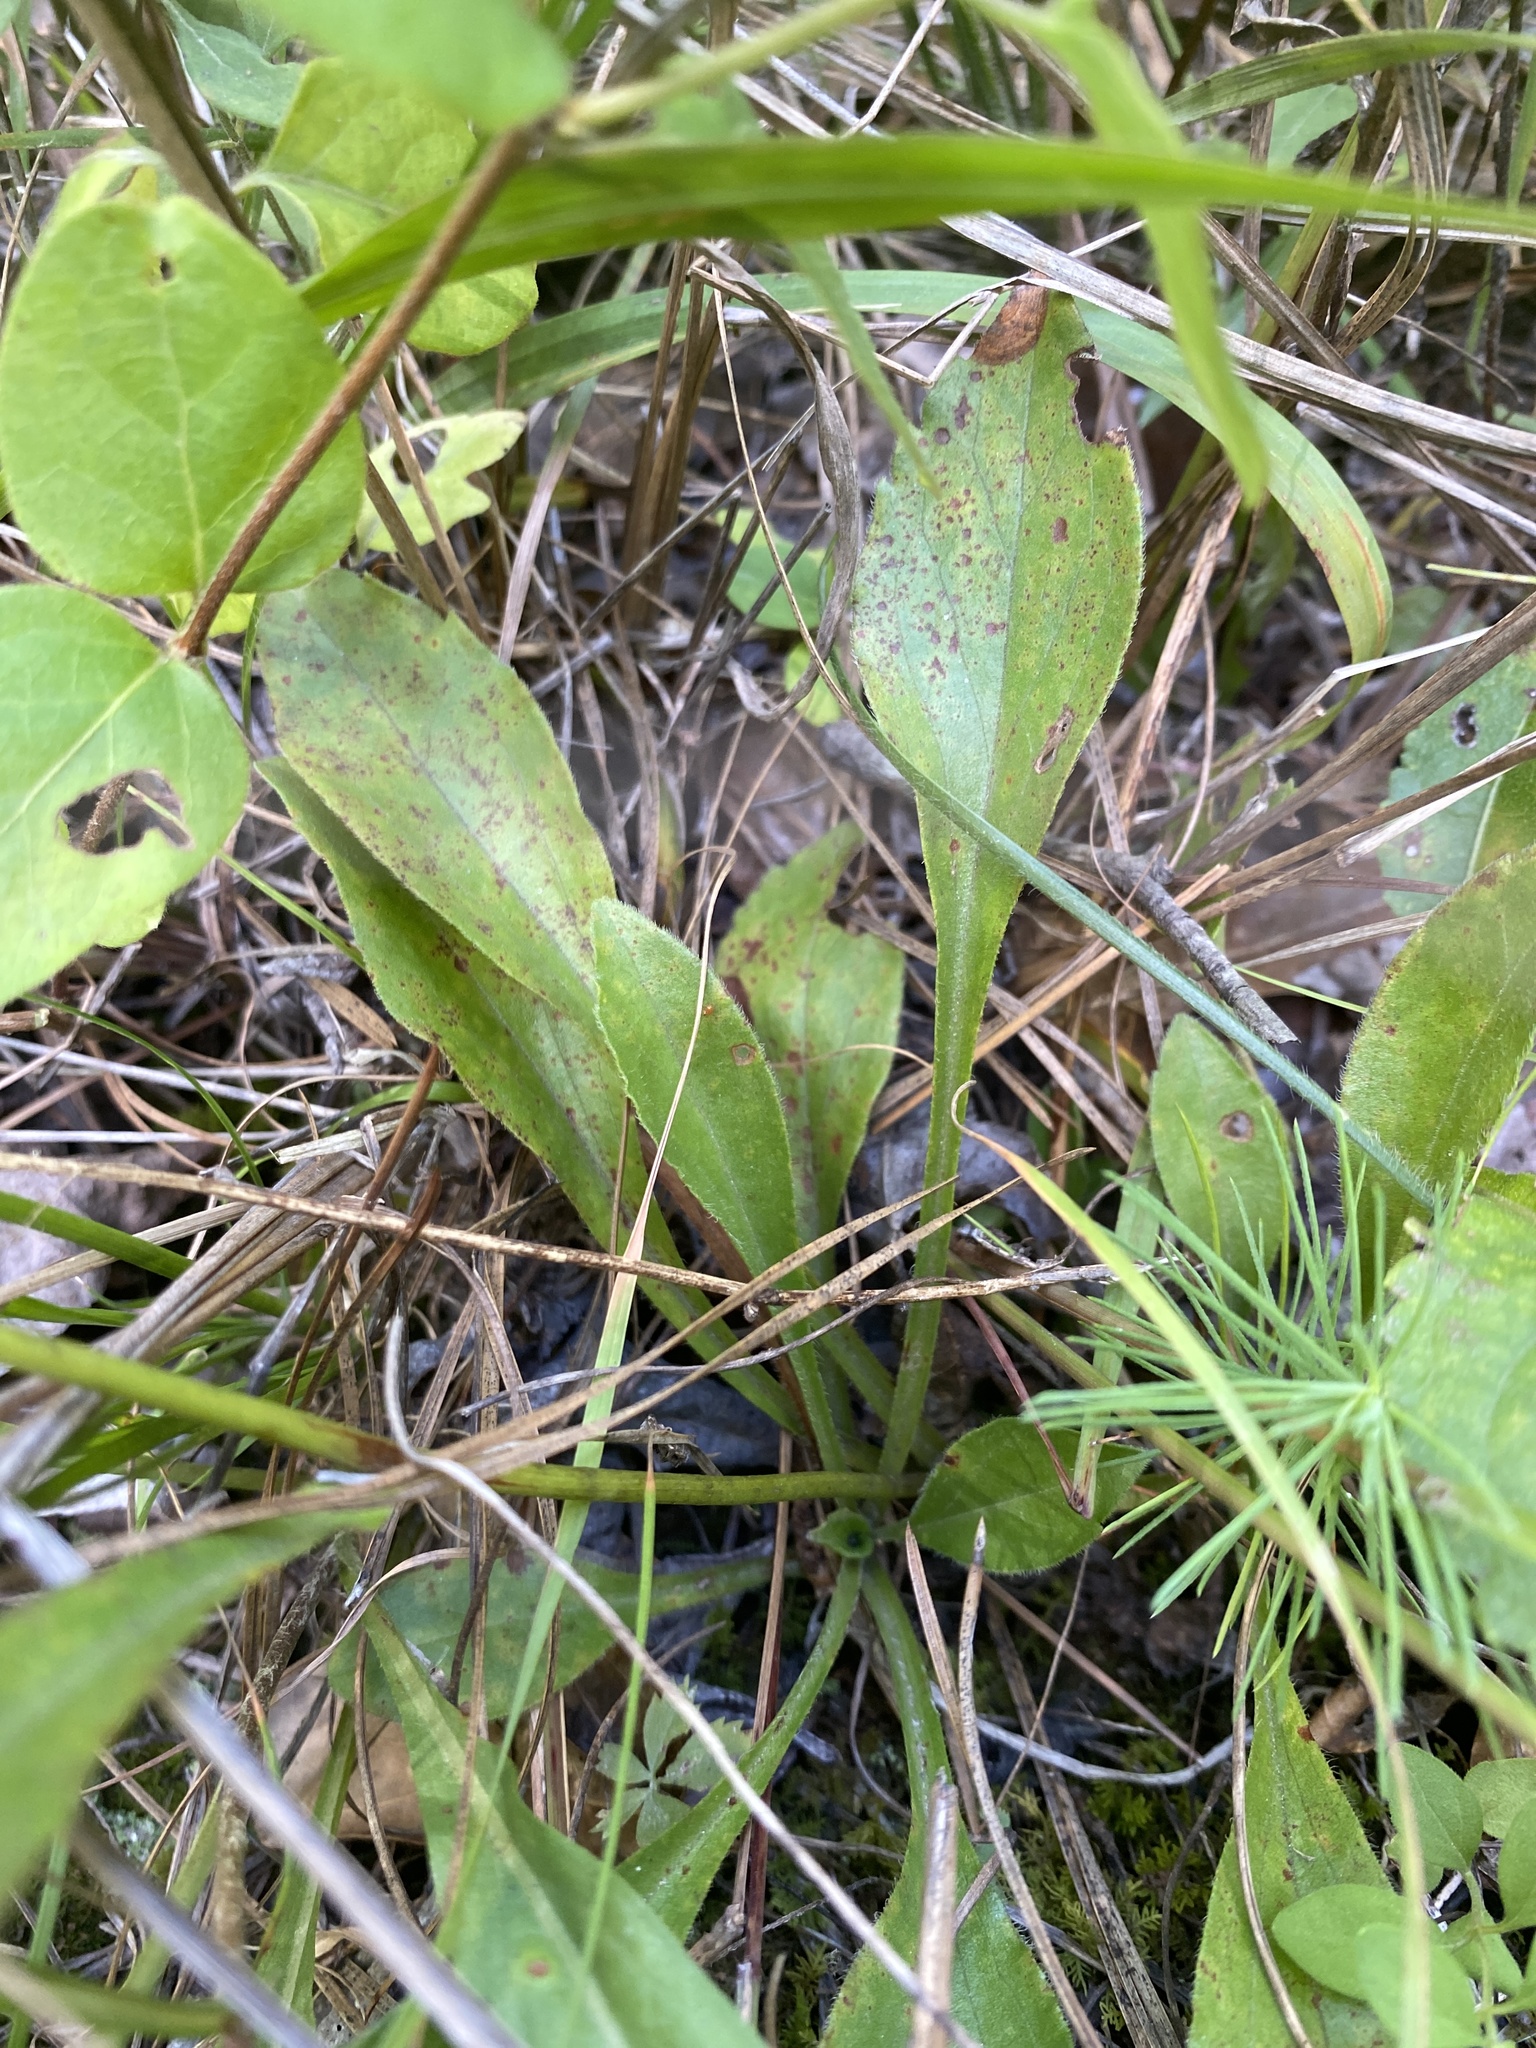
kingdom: Plantae
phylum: Tracheophyta
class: Magnoliopsida
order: Asterales
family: Asteraceae
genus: Sericocarpus
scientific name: Sericocarpus asteroides
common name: Toothed white-top aster
